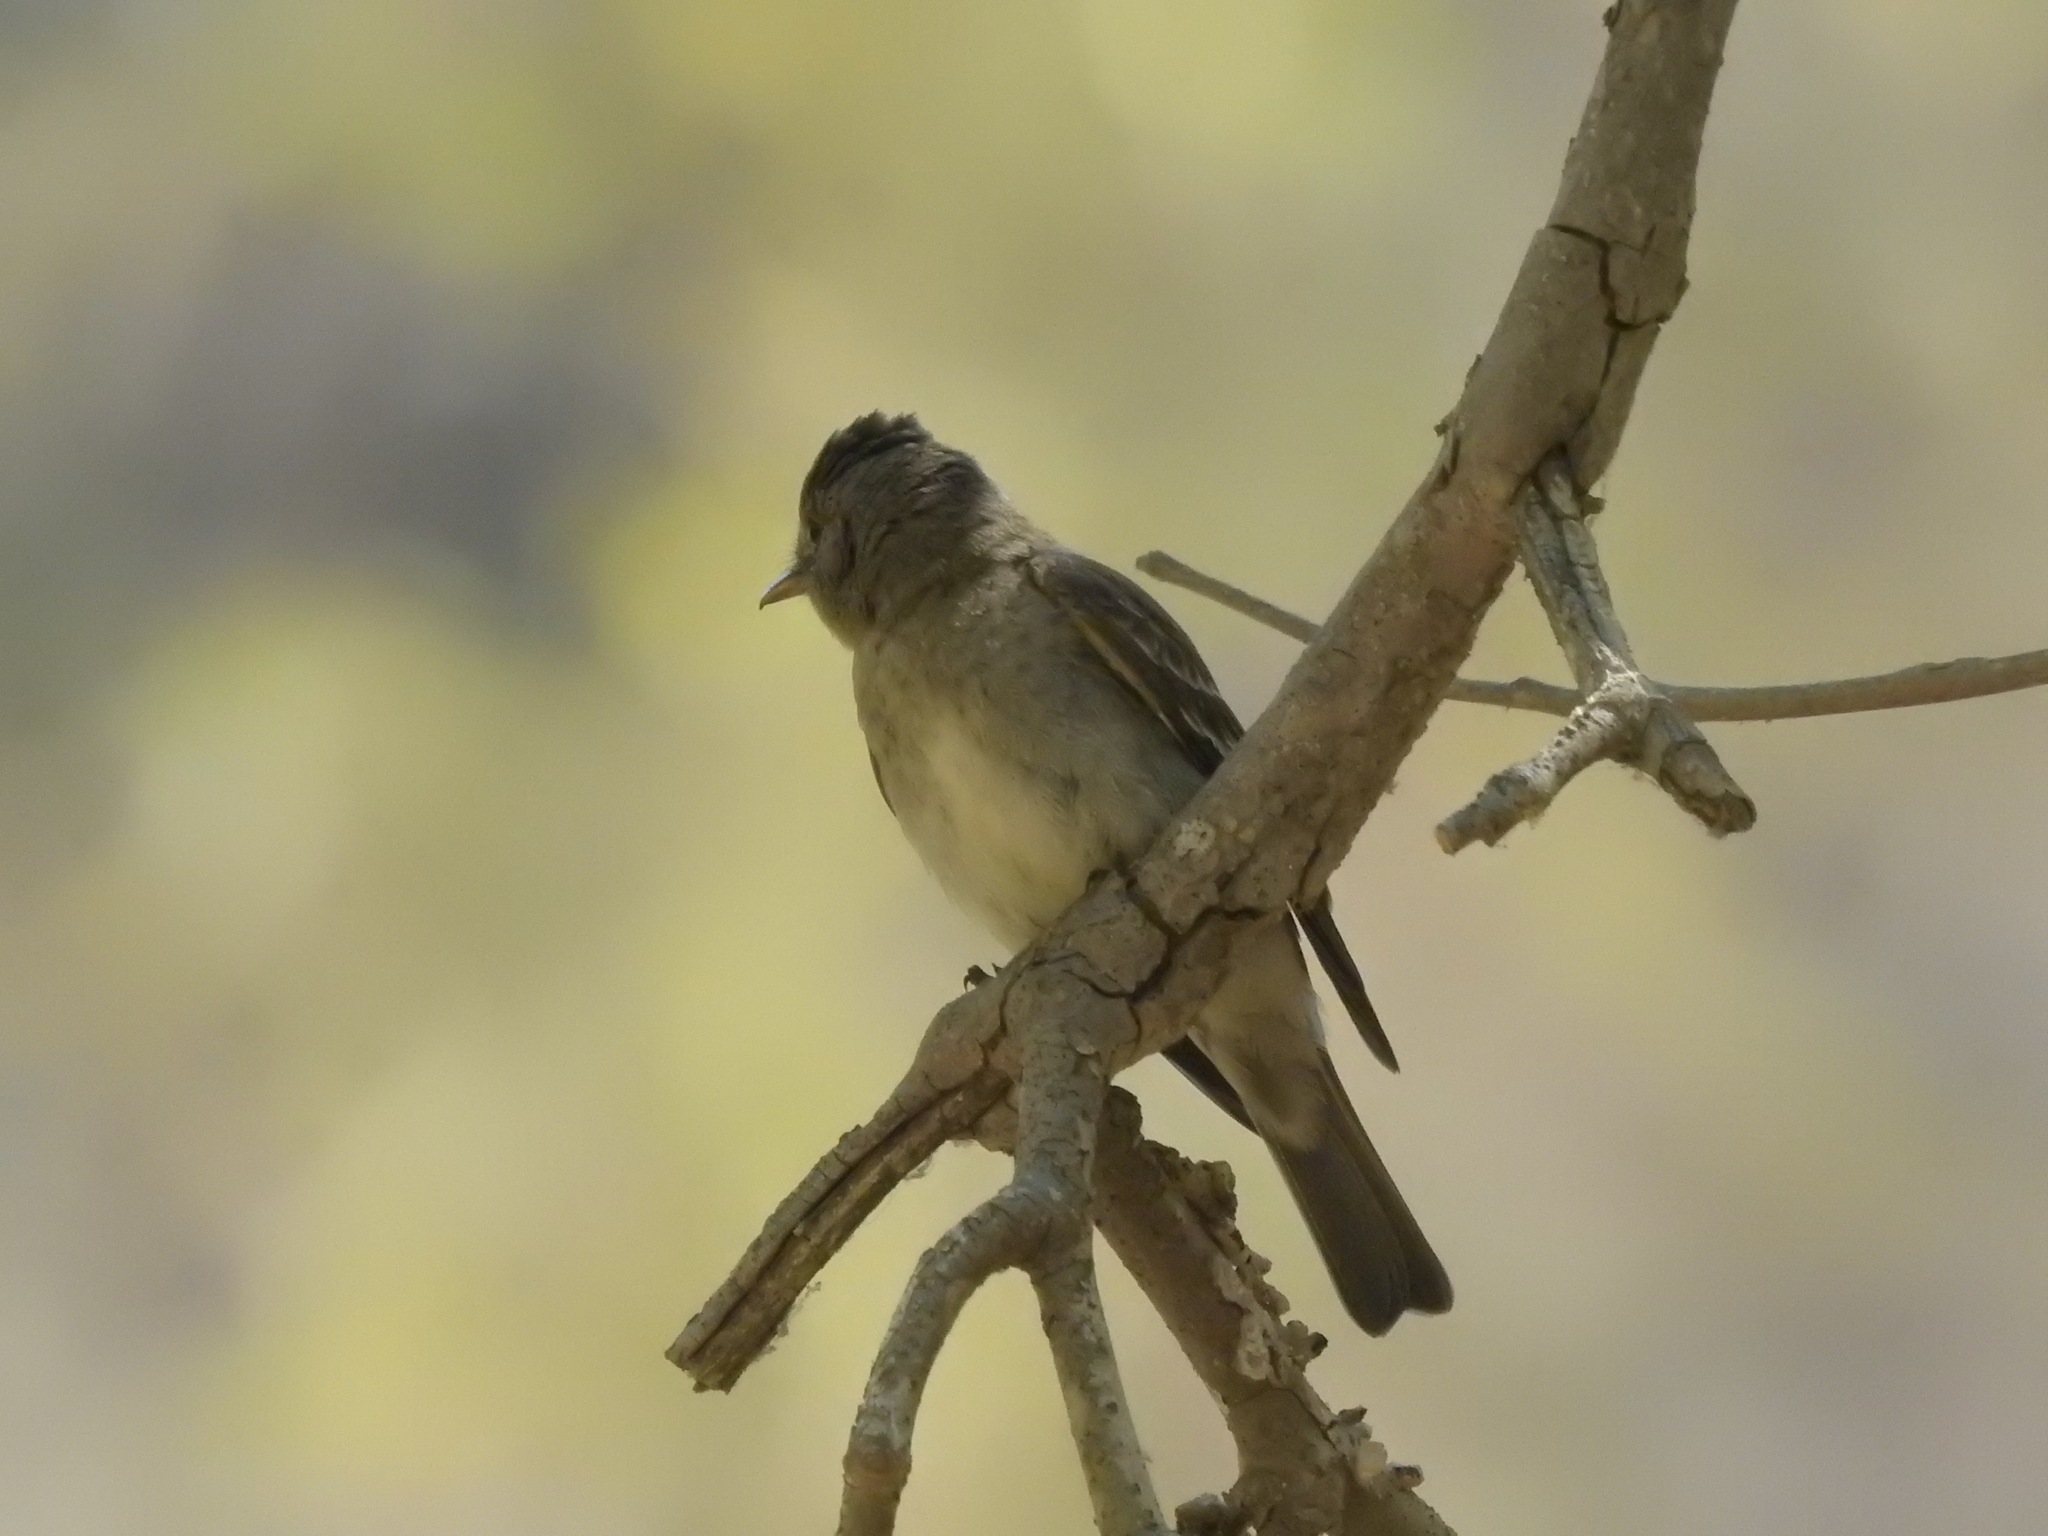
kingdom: Animalia
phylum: Chordata
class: Aves
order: Passeriformes
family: Tyrannidae
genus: Contopus
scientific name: Contopus sordidulus
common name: Western wood-pewee
